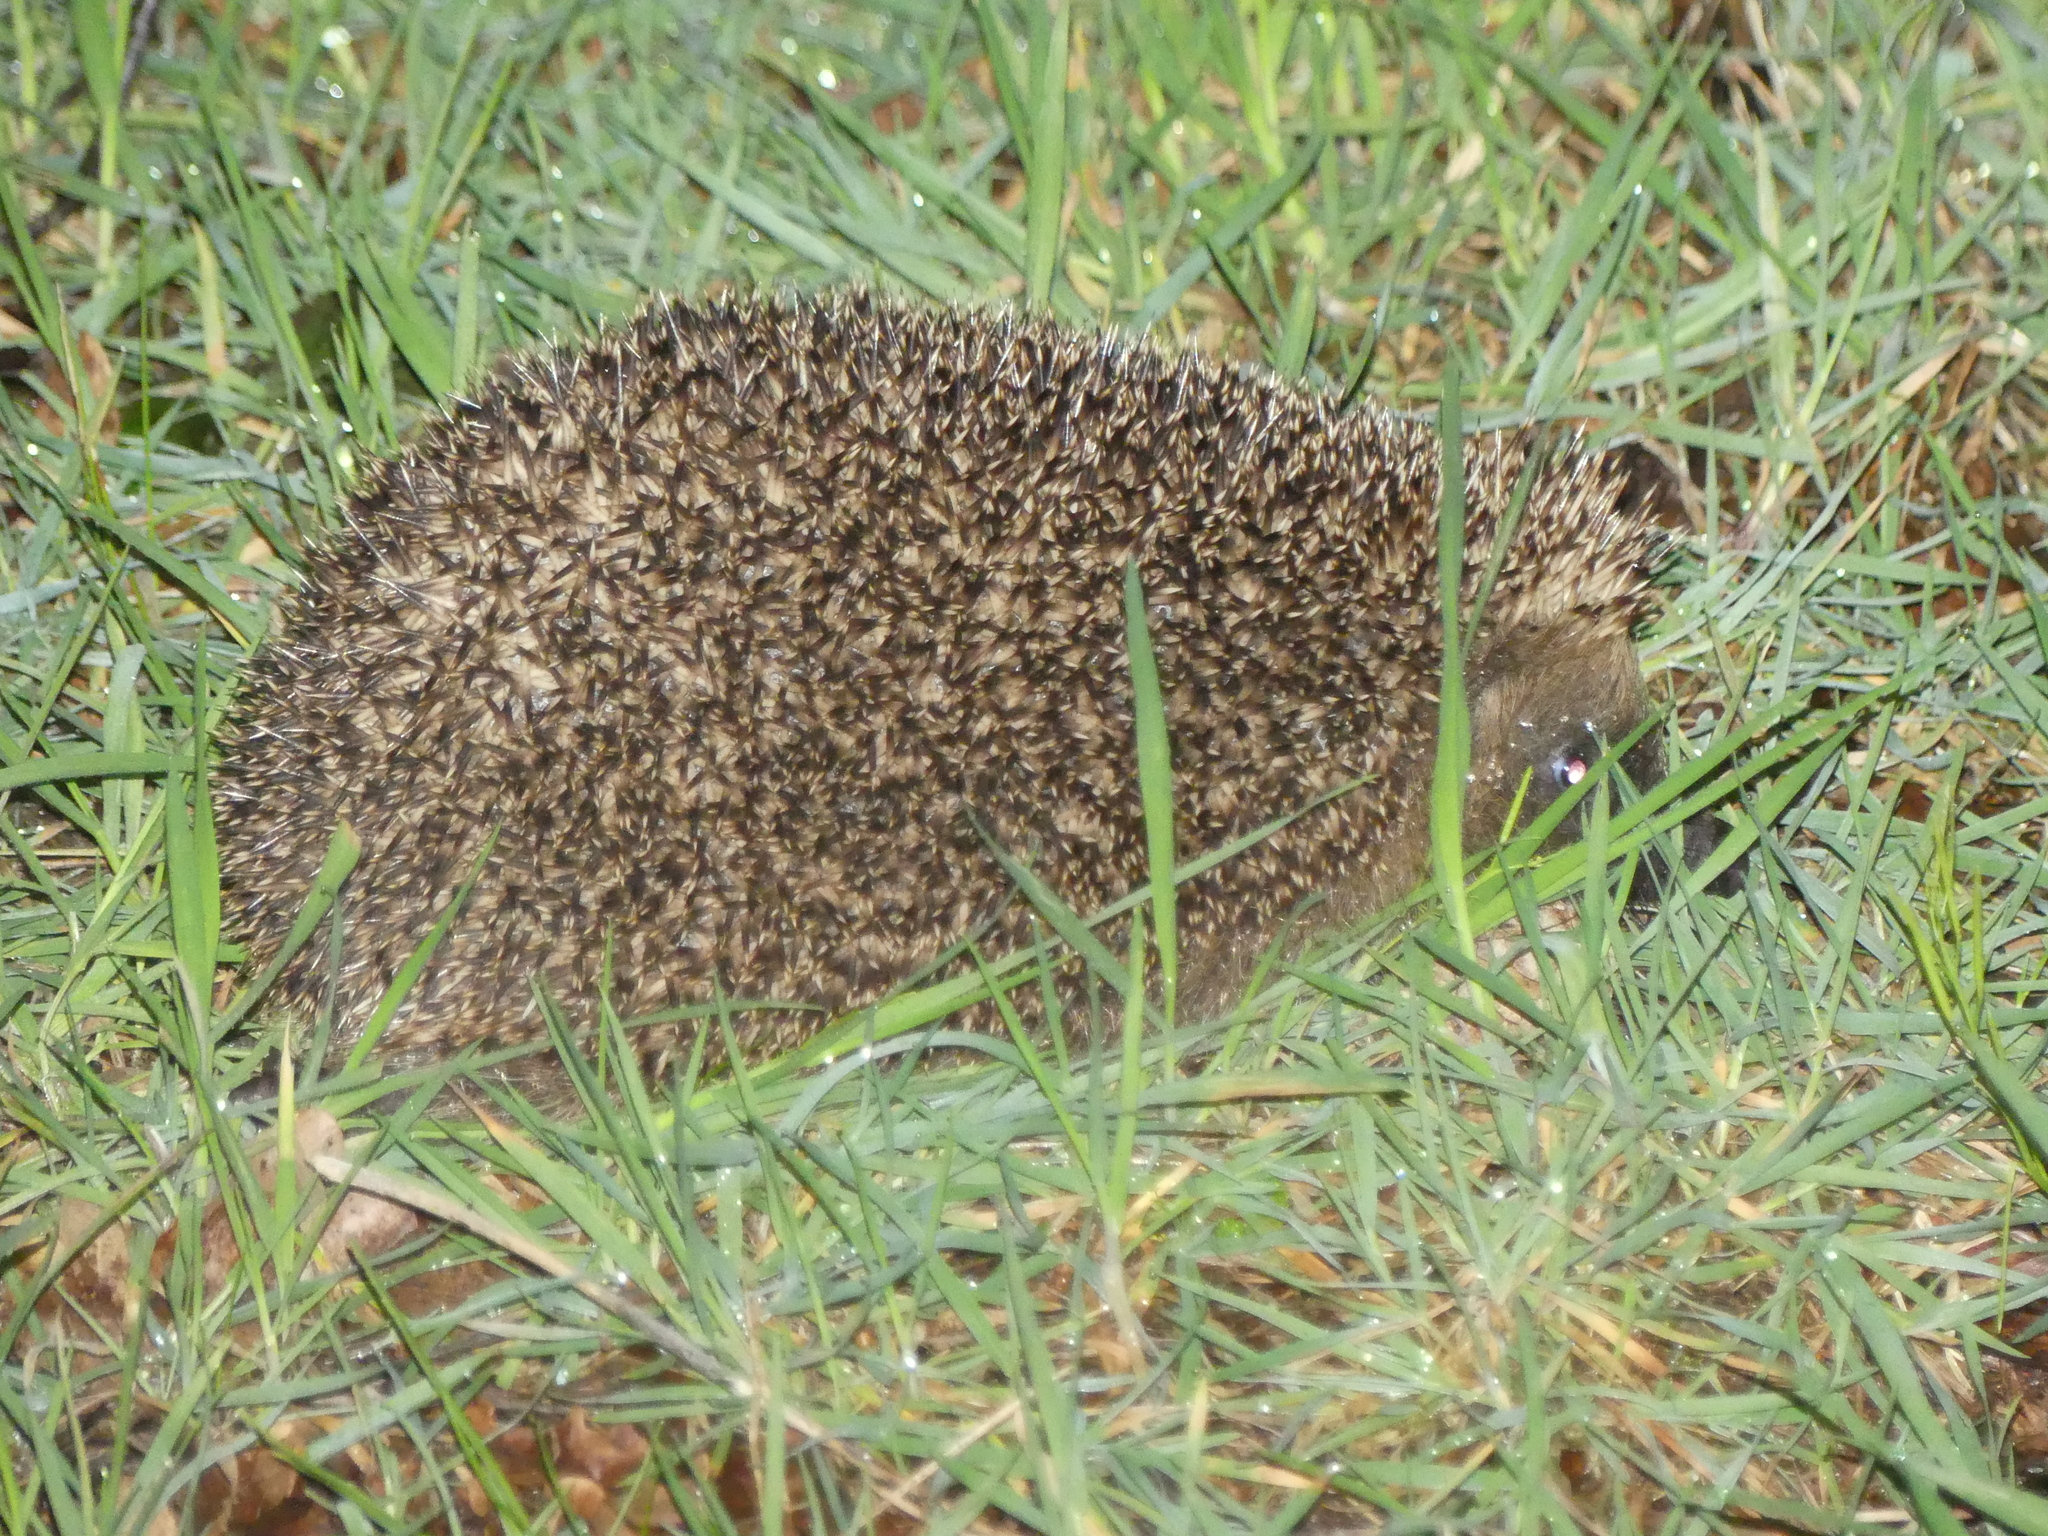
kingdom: Animalia
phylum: Chordata
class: Mammalia
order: Erinaceomorpha
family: Erinaceidae
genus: Erinaceus
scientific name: Erinaceus europaeus
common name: West european hedgehog
